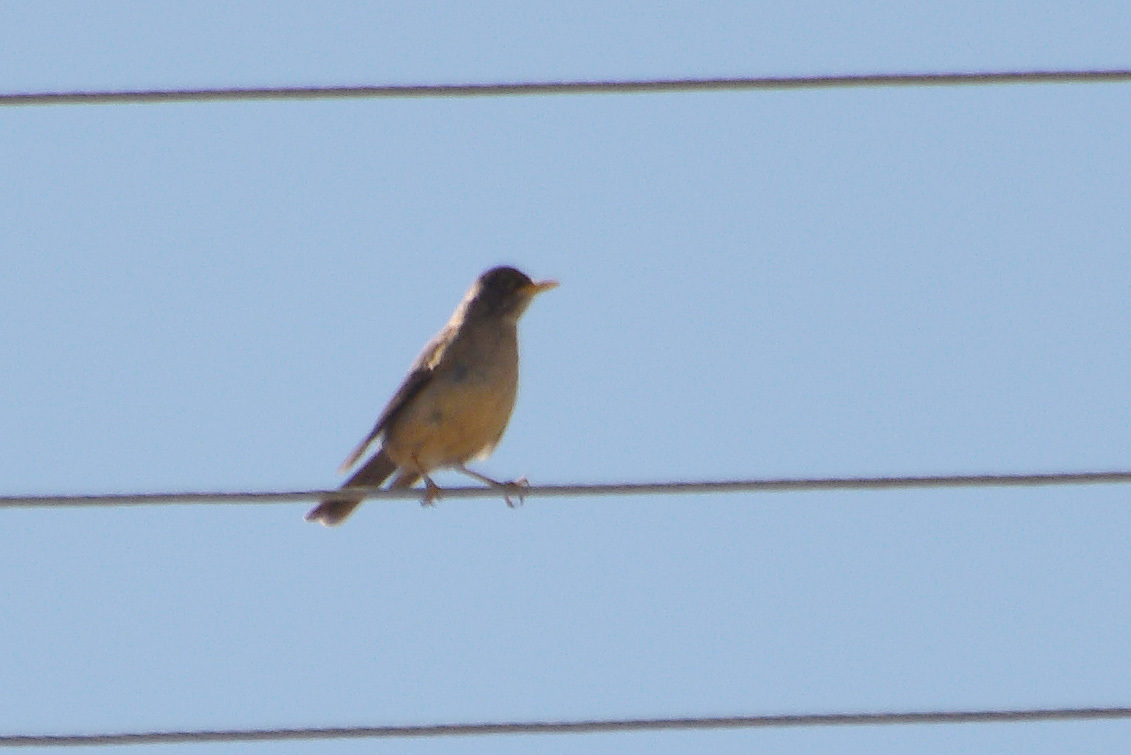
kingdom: Animalia
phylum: Chordata
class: Aves
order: Passeriformes
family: Turdidae
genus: Turdus
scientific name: Turdus falcklandii
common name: Austral thrush
